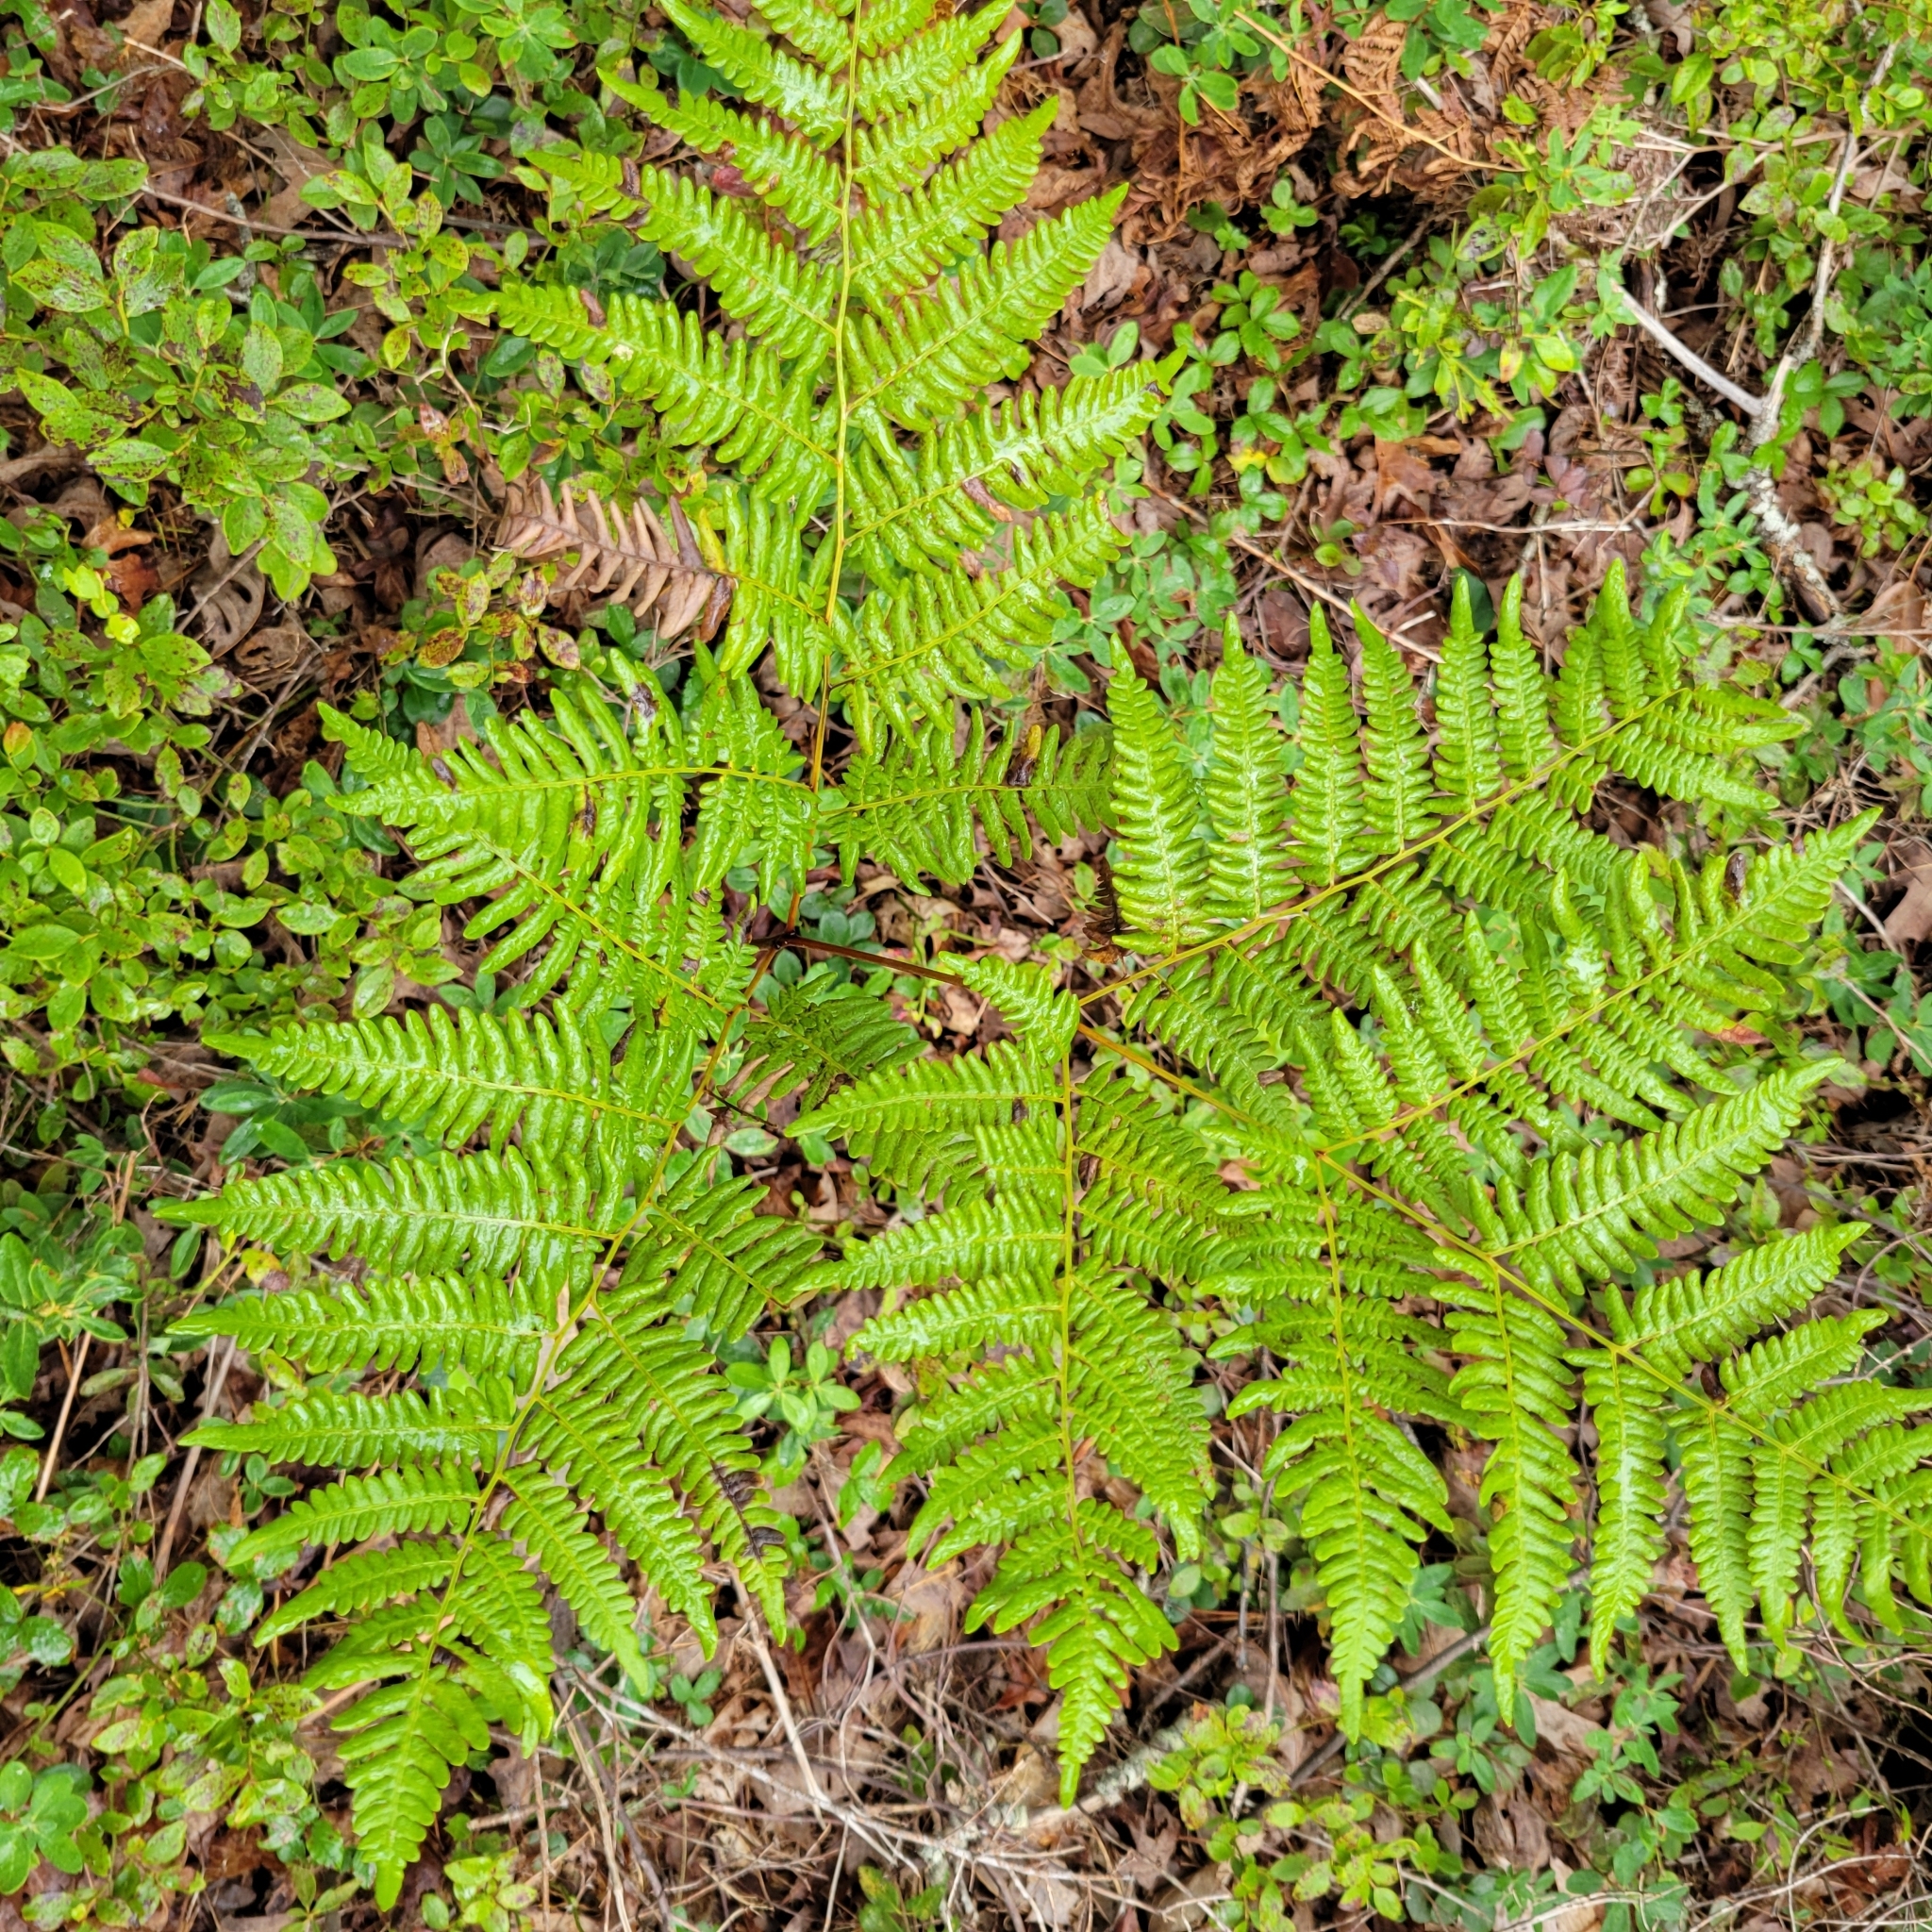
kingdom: Plantae
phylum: Tracheophyta
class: Polypodiopsida
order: Polypodiales
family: Dennstaedtiaceae
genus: Pteridium
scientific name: Pteridium aquilinum
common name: Bracken
